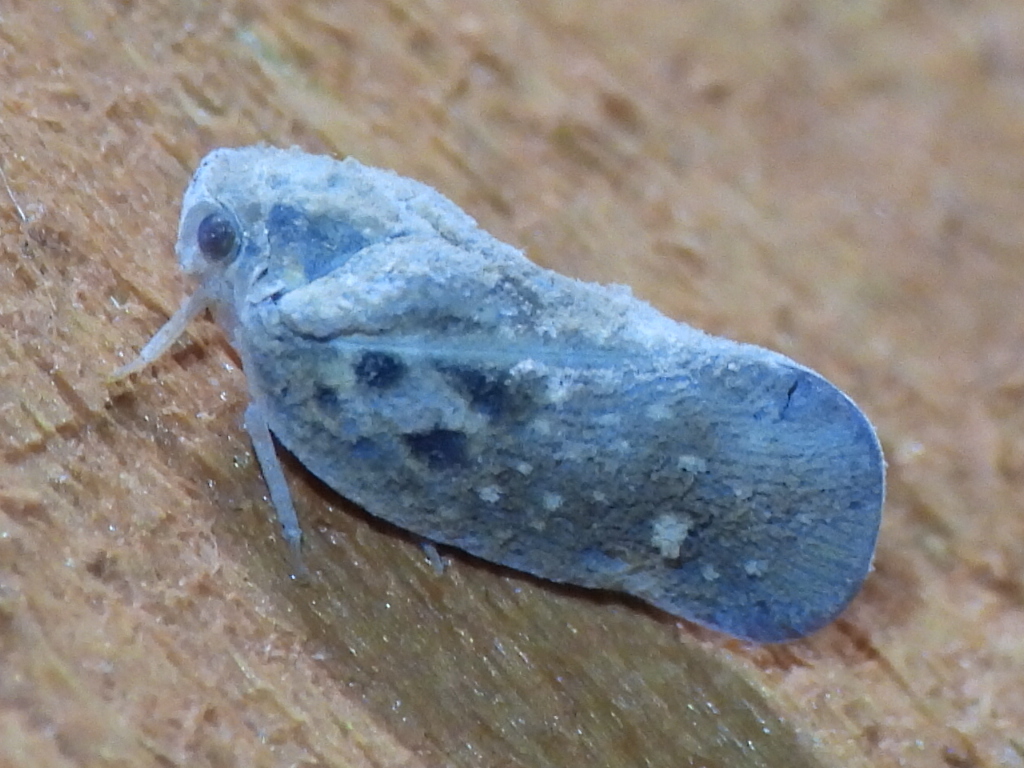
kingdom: Animalia
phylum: Arthropoda
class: Insecta
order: Hemiptera
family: Flatidae
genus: Metcalfa
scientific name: Metcalfa pruinosa
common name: Citrus flatid planthopper
